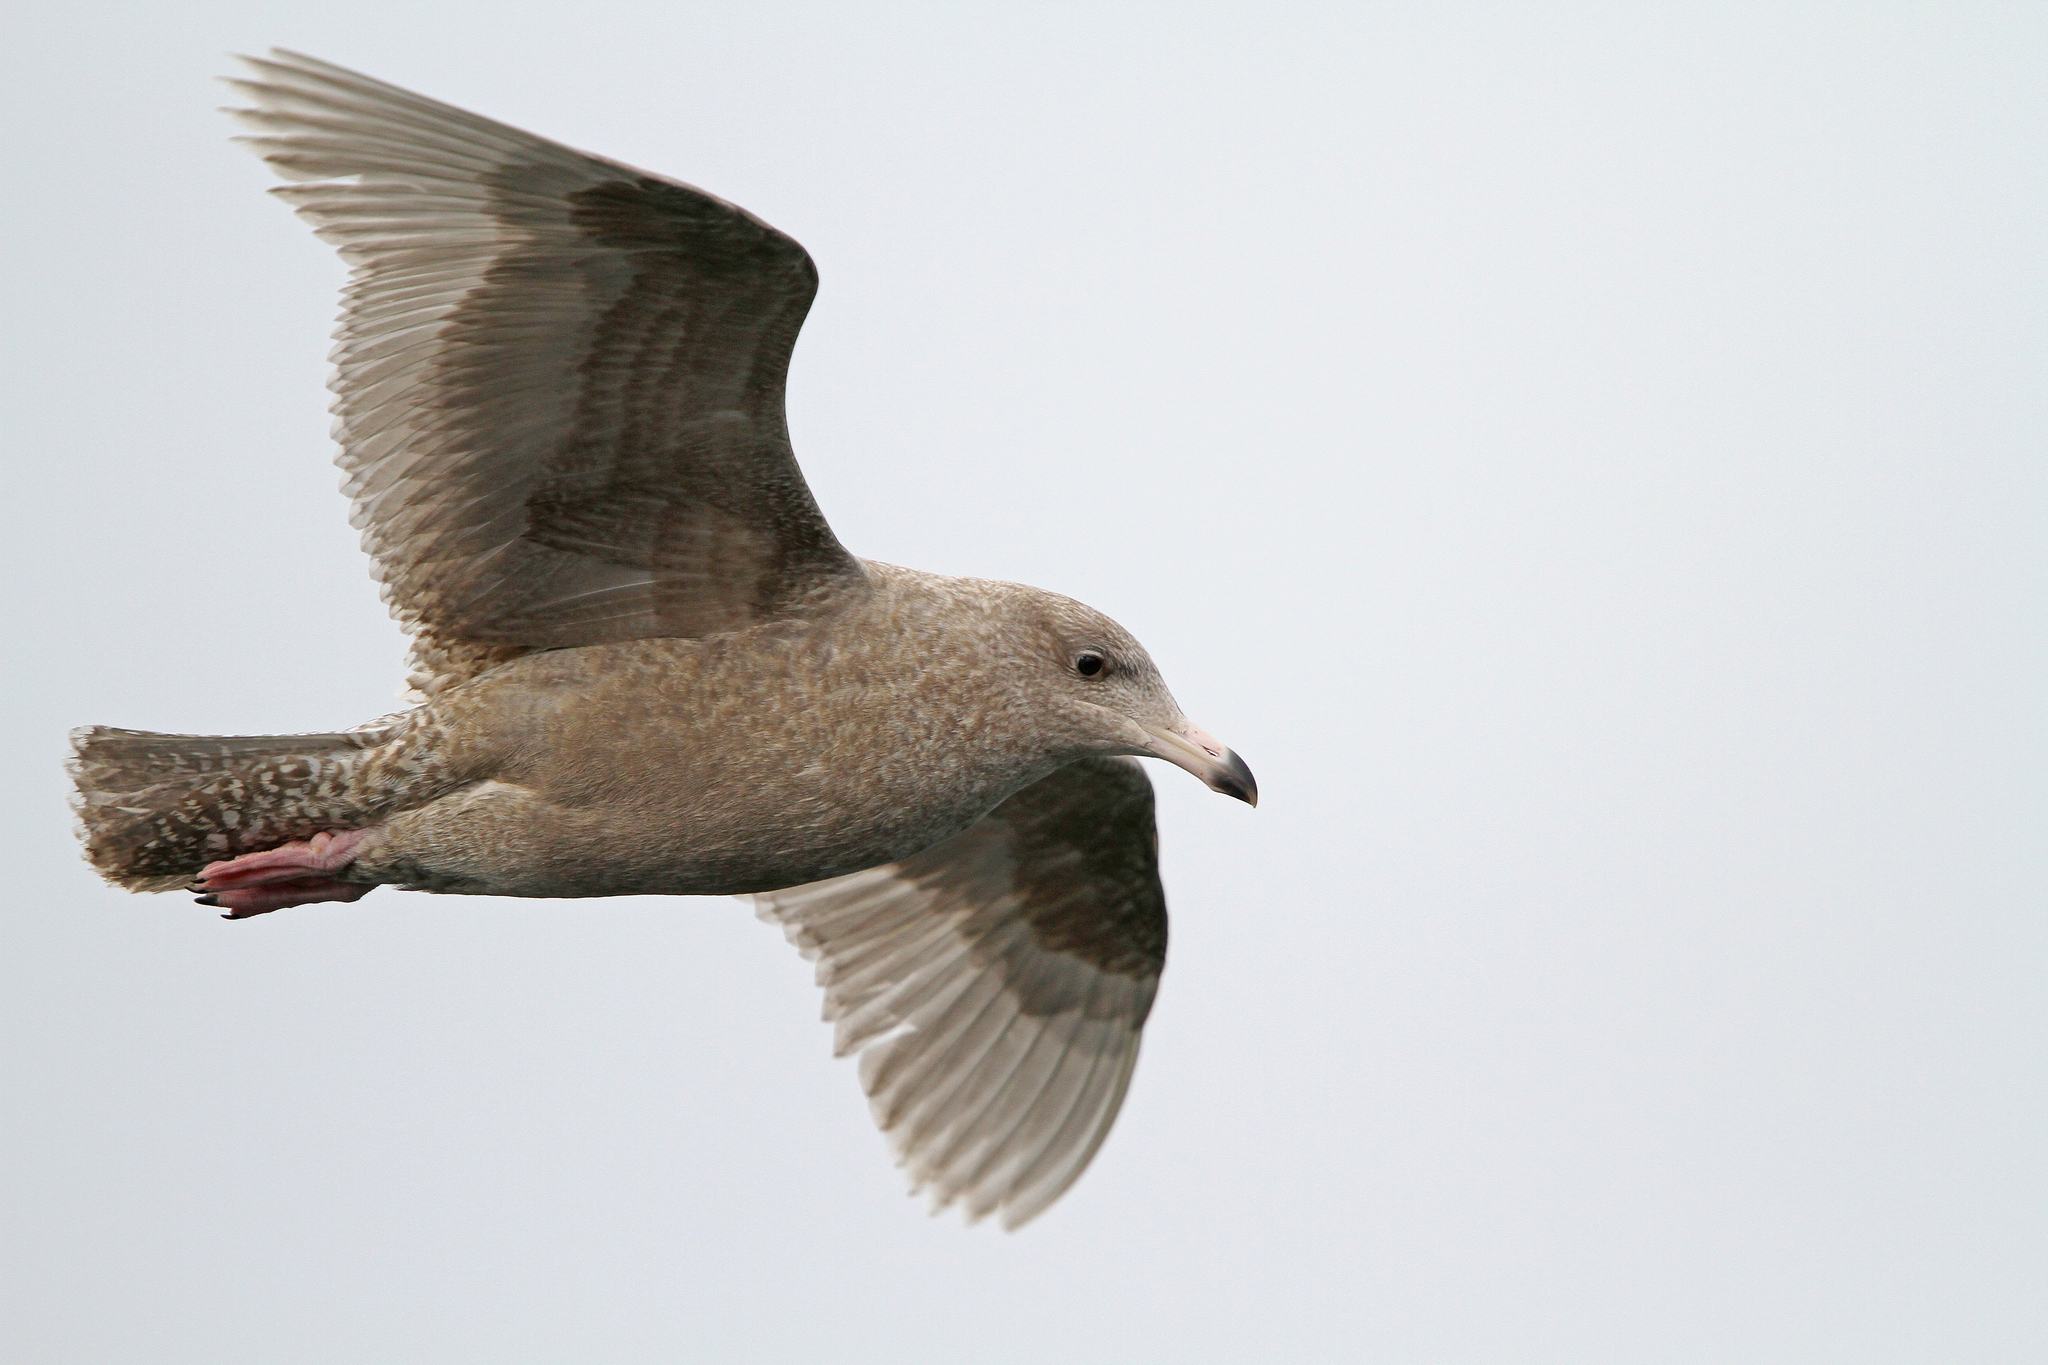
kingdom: Animalia
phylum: Chordata
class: Aves
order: Charadriiformes
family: Laridae
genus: Larus
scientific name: Larus hyperboreus
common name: Glaucous gull
